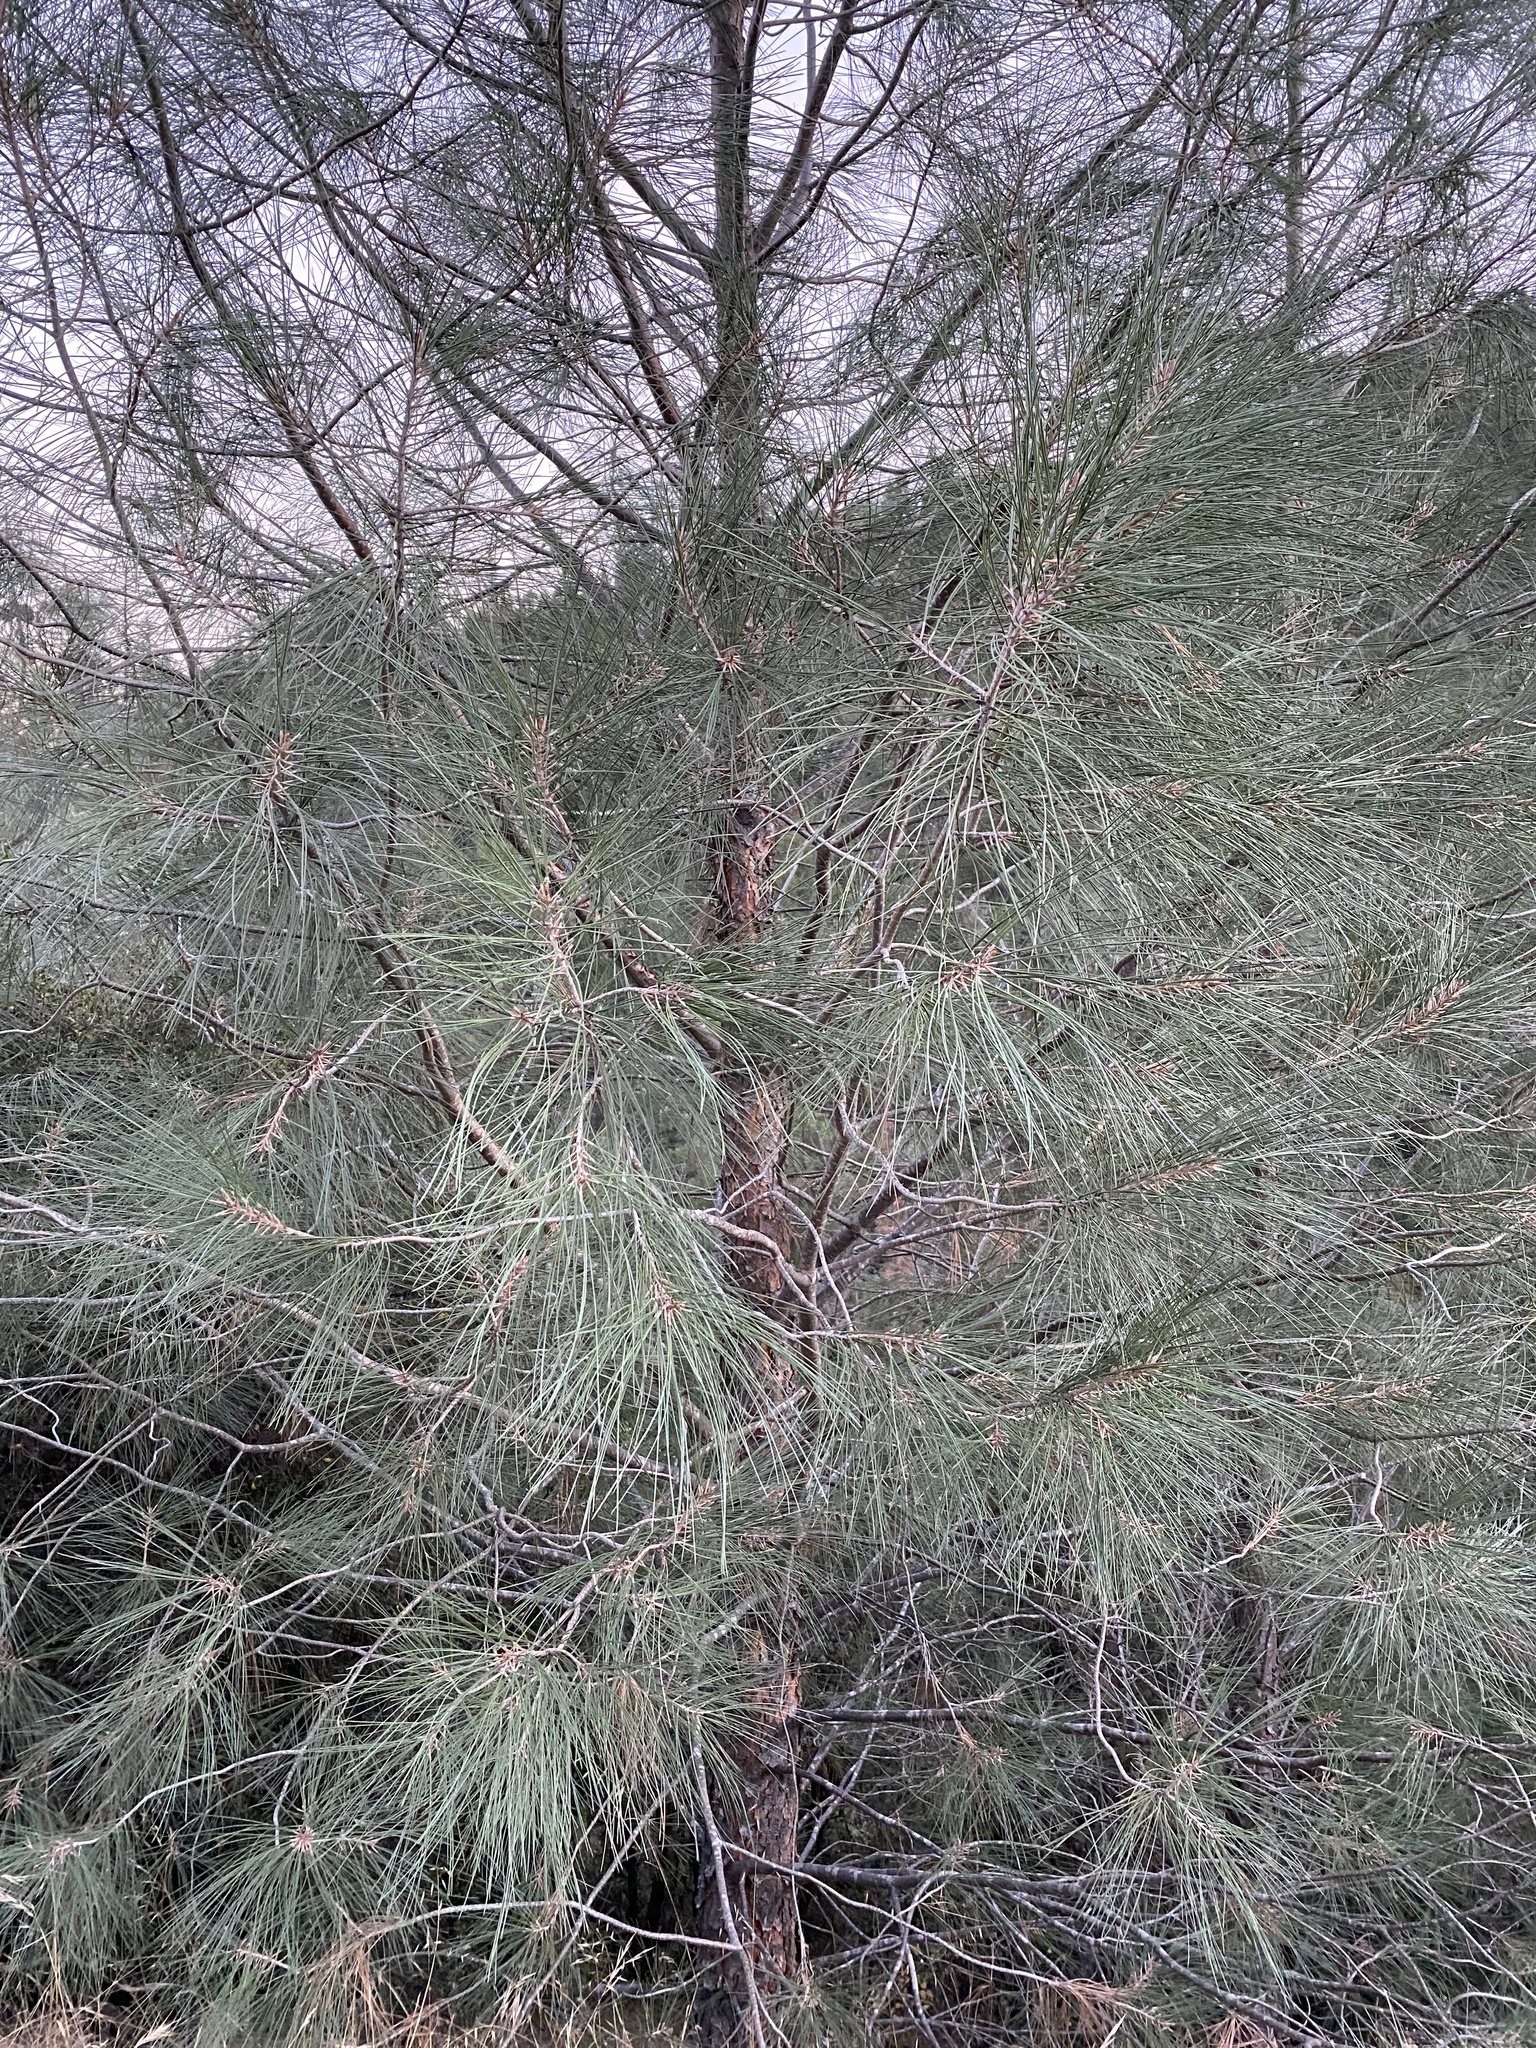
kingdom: Plantae
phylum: Tracheophyta
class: Pinopsida
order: Pinales
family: Pinaceae
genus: Pinus
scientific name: Pinus sabiniana
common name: Bull pine
